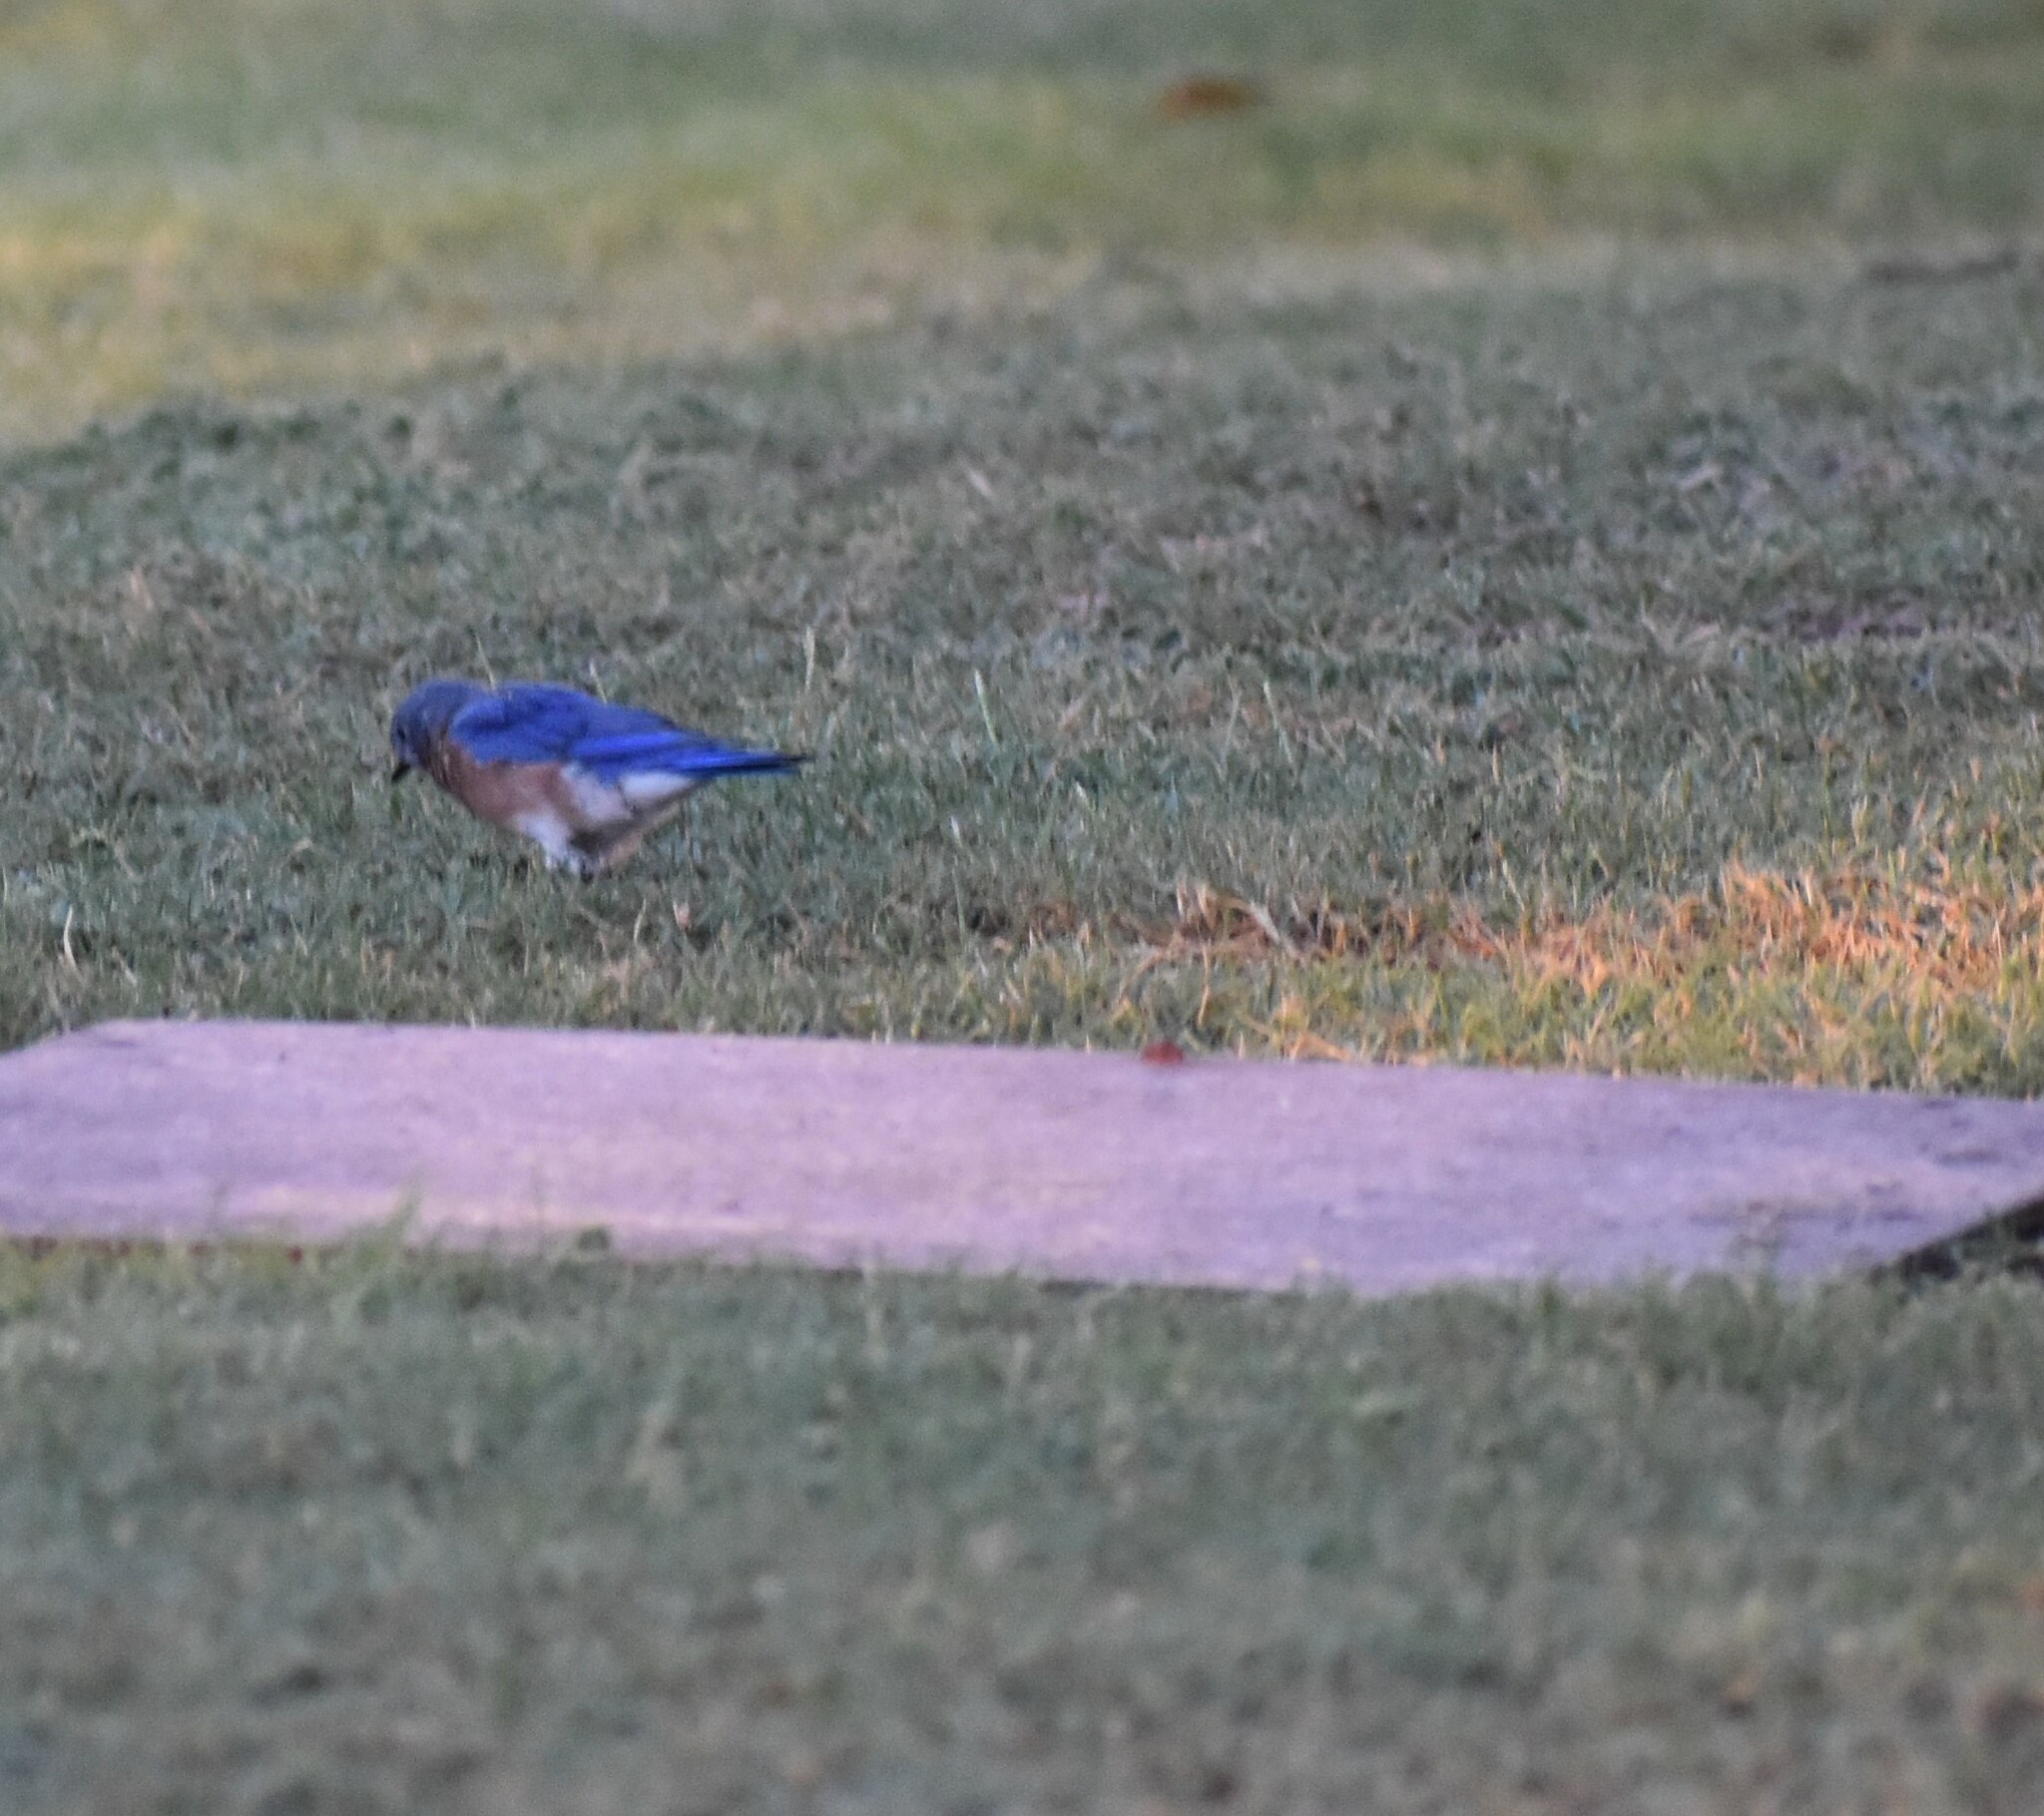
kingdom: Animalia
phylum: Chordata
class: Aves
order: Passeriformes
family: Turdidae
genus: Sialia
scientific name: Sialia sialis
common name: Eastern bluebird
